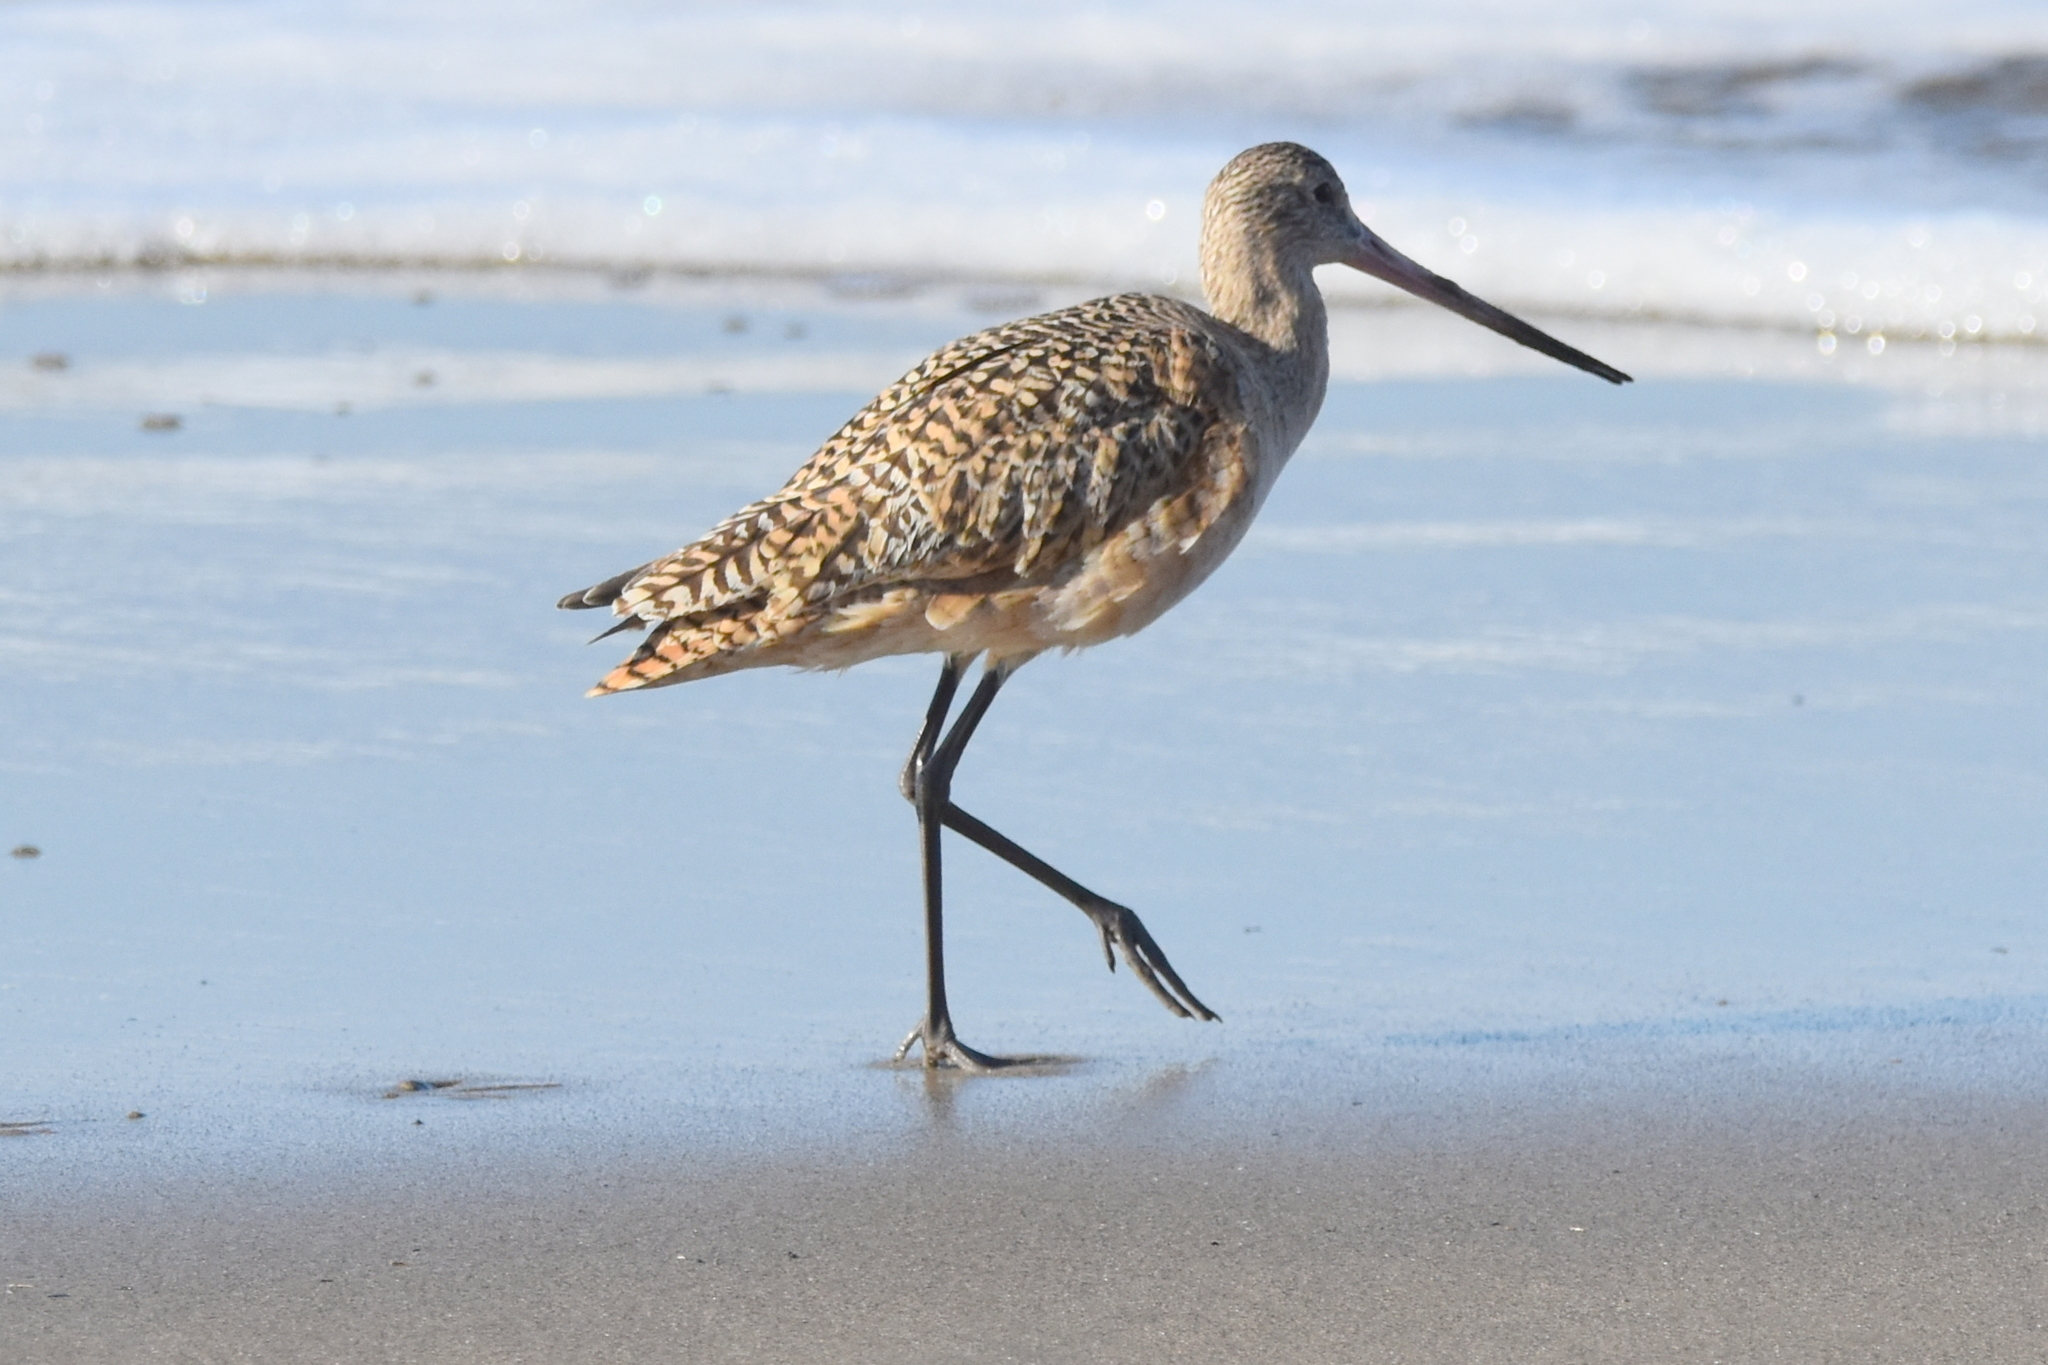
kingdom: Animalia
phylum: Chordata
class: Aves
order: Charadriiformes
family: Scolopacidae
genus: Limosa
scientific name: Limosa fedoa
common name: Marbled godwit
